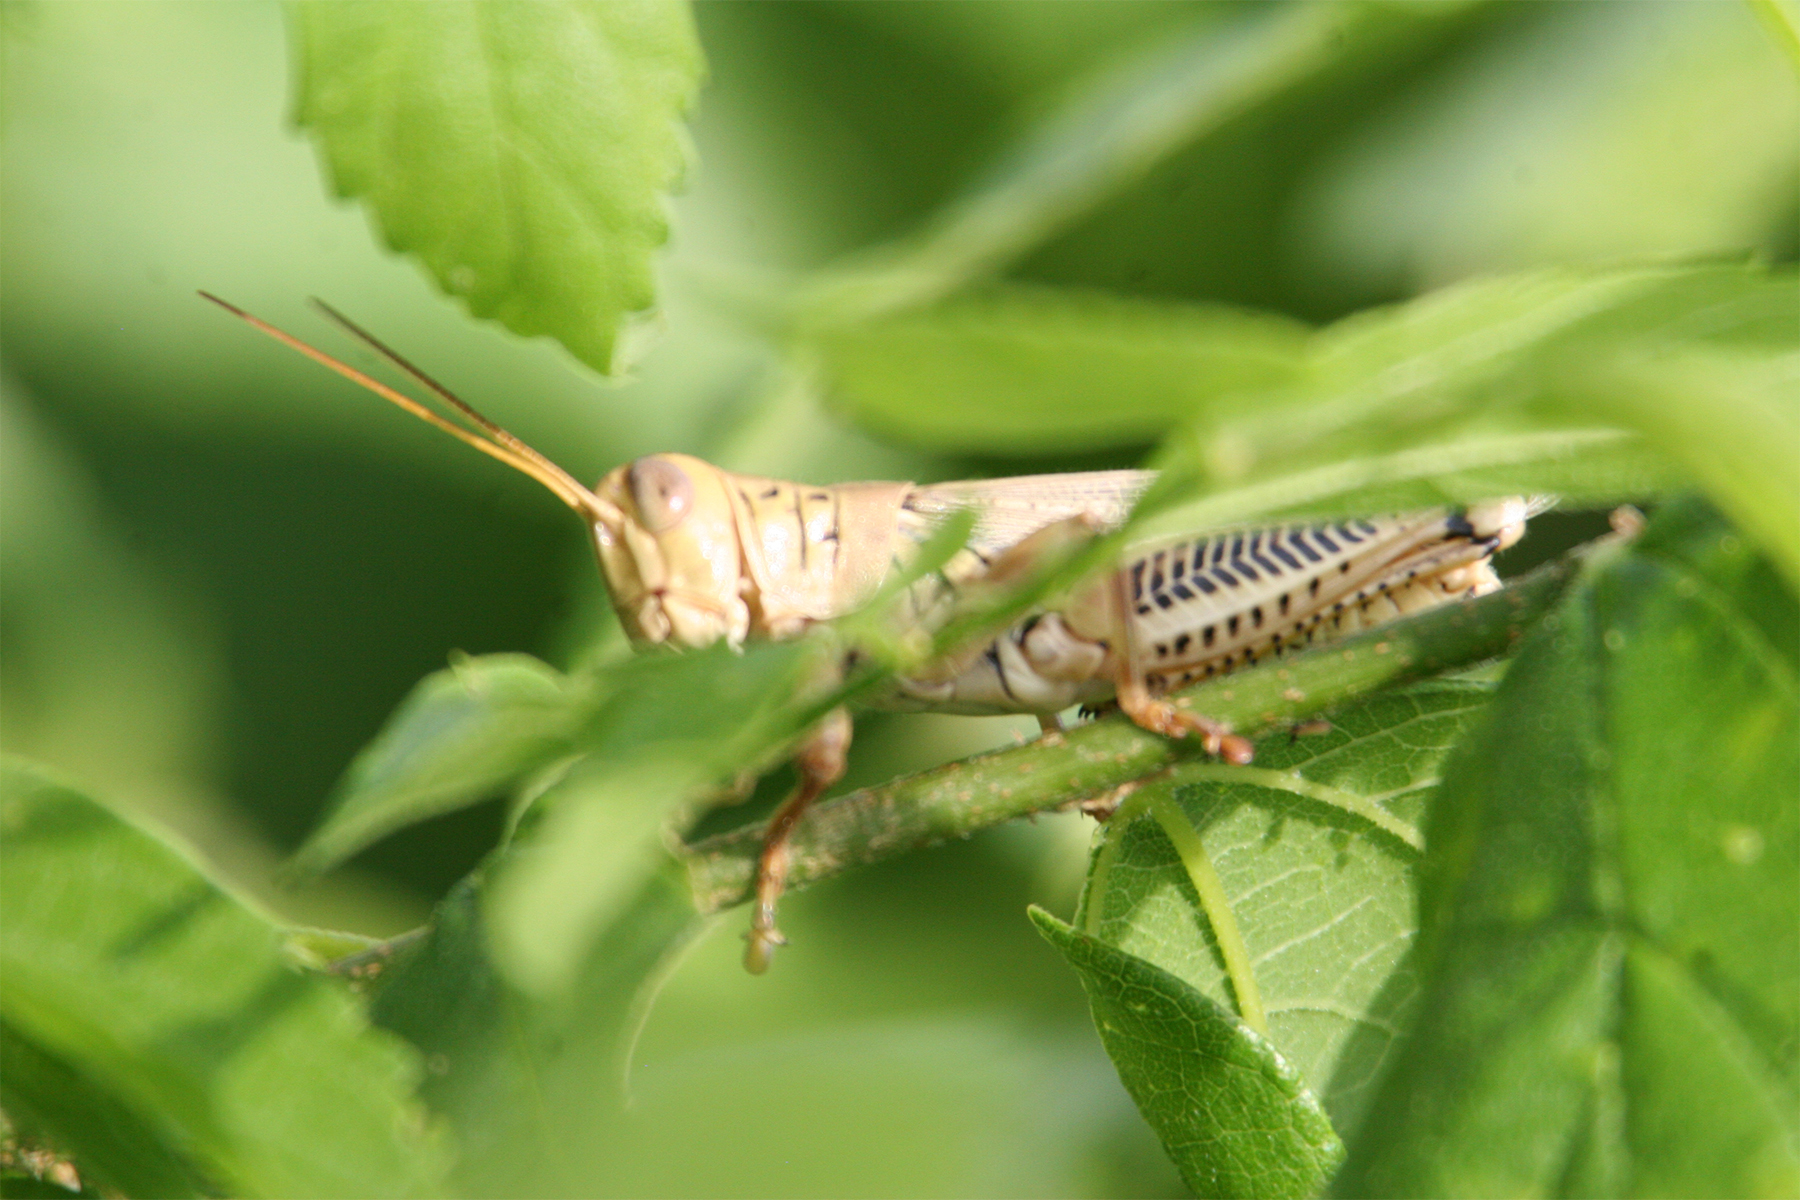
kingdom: Animalia
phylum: Arthropoda
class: Insecta
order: Orthoptera
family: Acrididae
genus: Melanoplus
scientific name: Melanoplus differentialis
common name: Differential grasshopper
